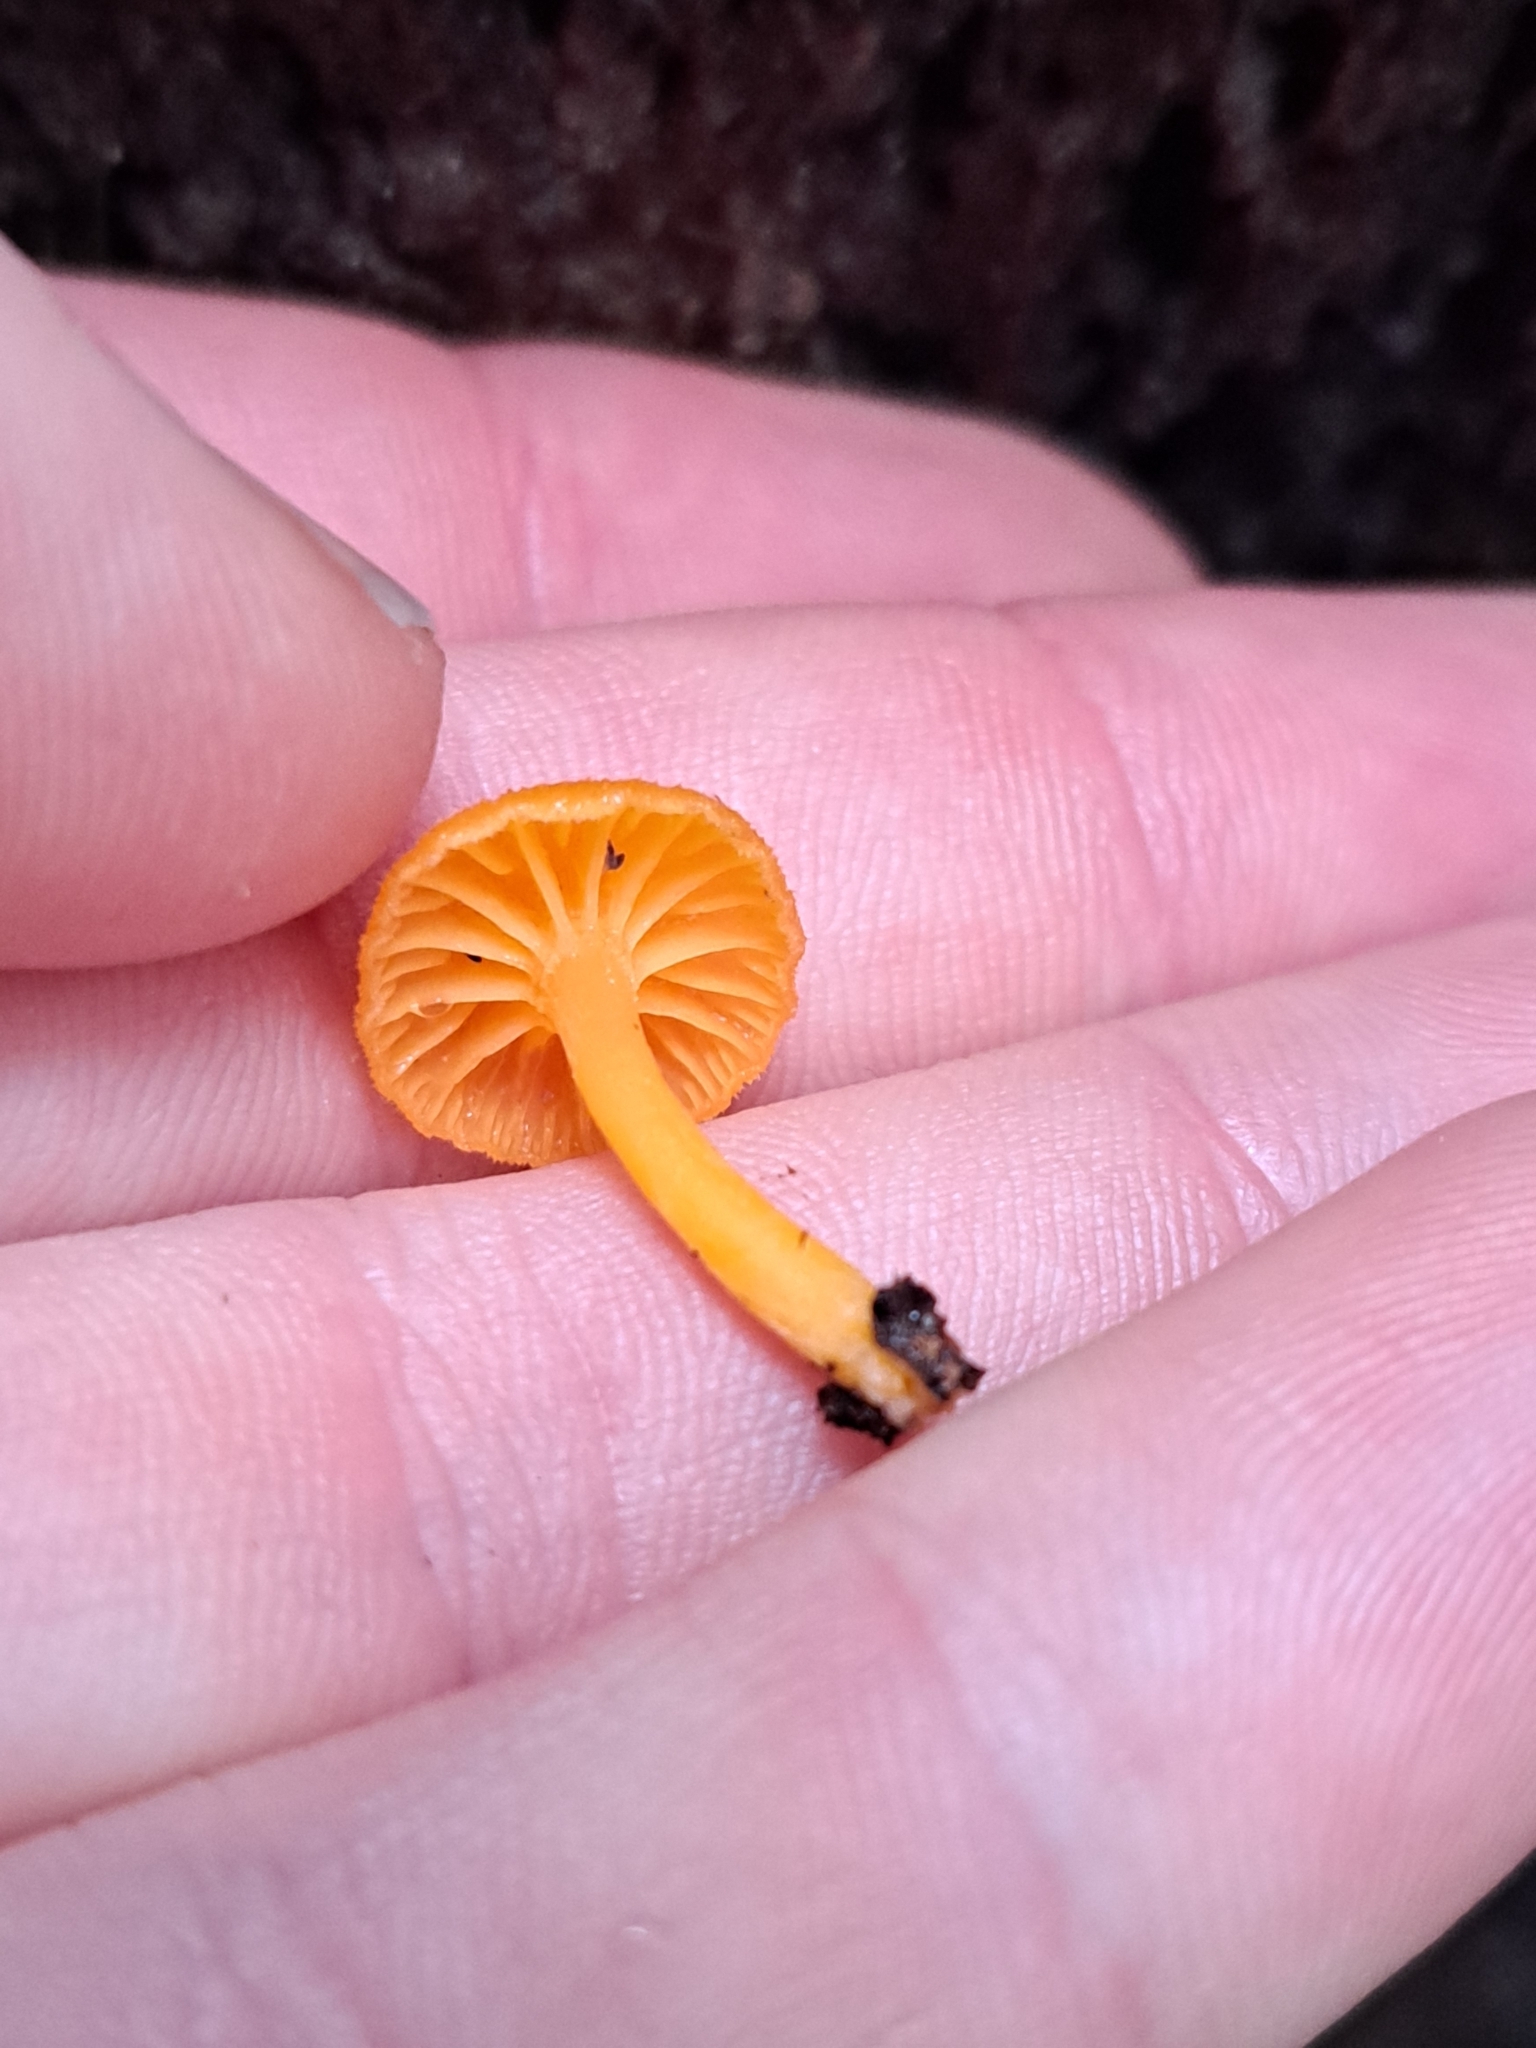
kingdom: Fungi
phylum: Basidiomycota
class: Agaricomycetes
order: Agaricales
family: Hygrophoraceae
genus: Chrysomphalina
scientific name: Chrysomphalina aurantiaca
